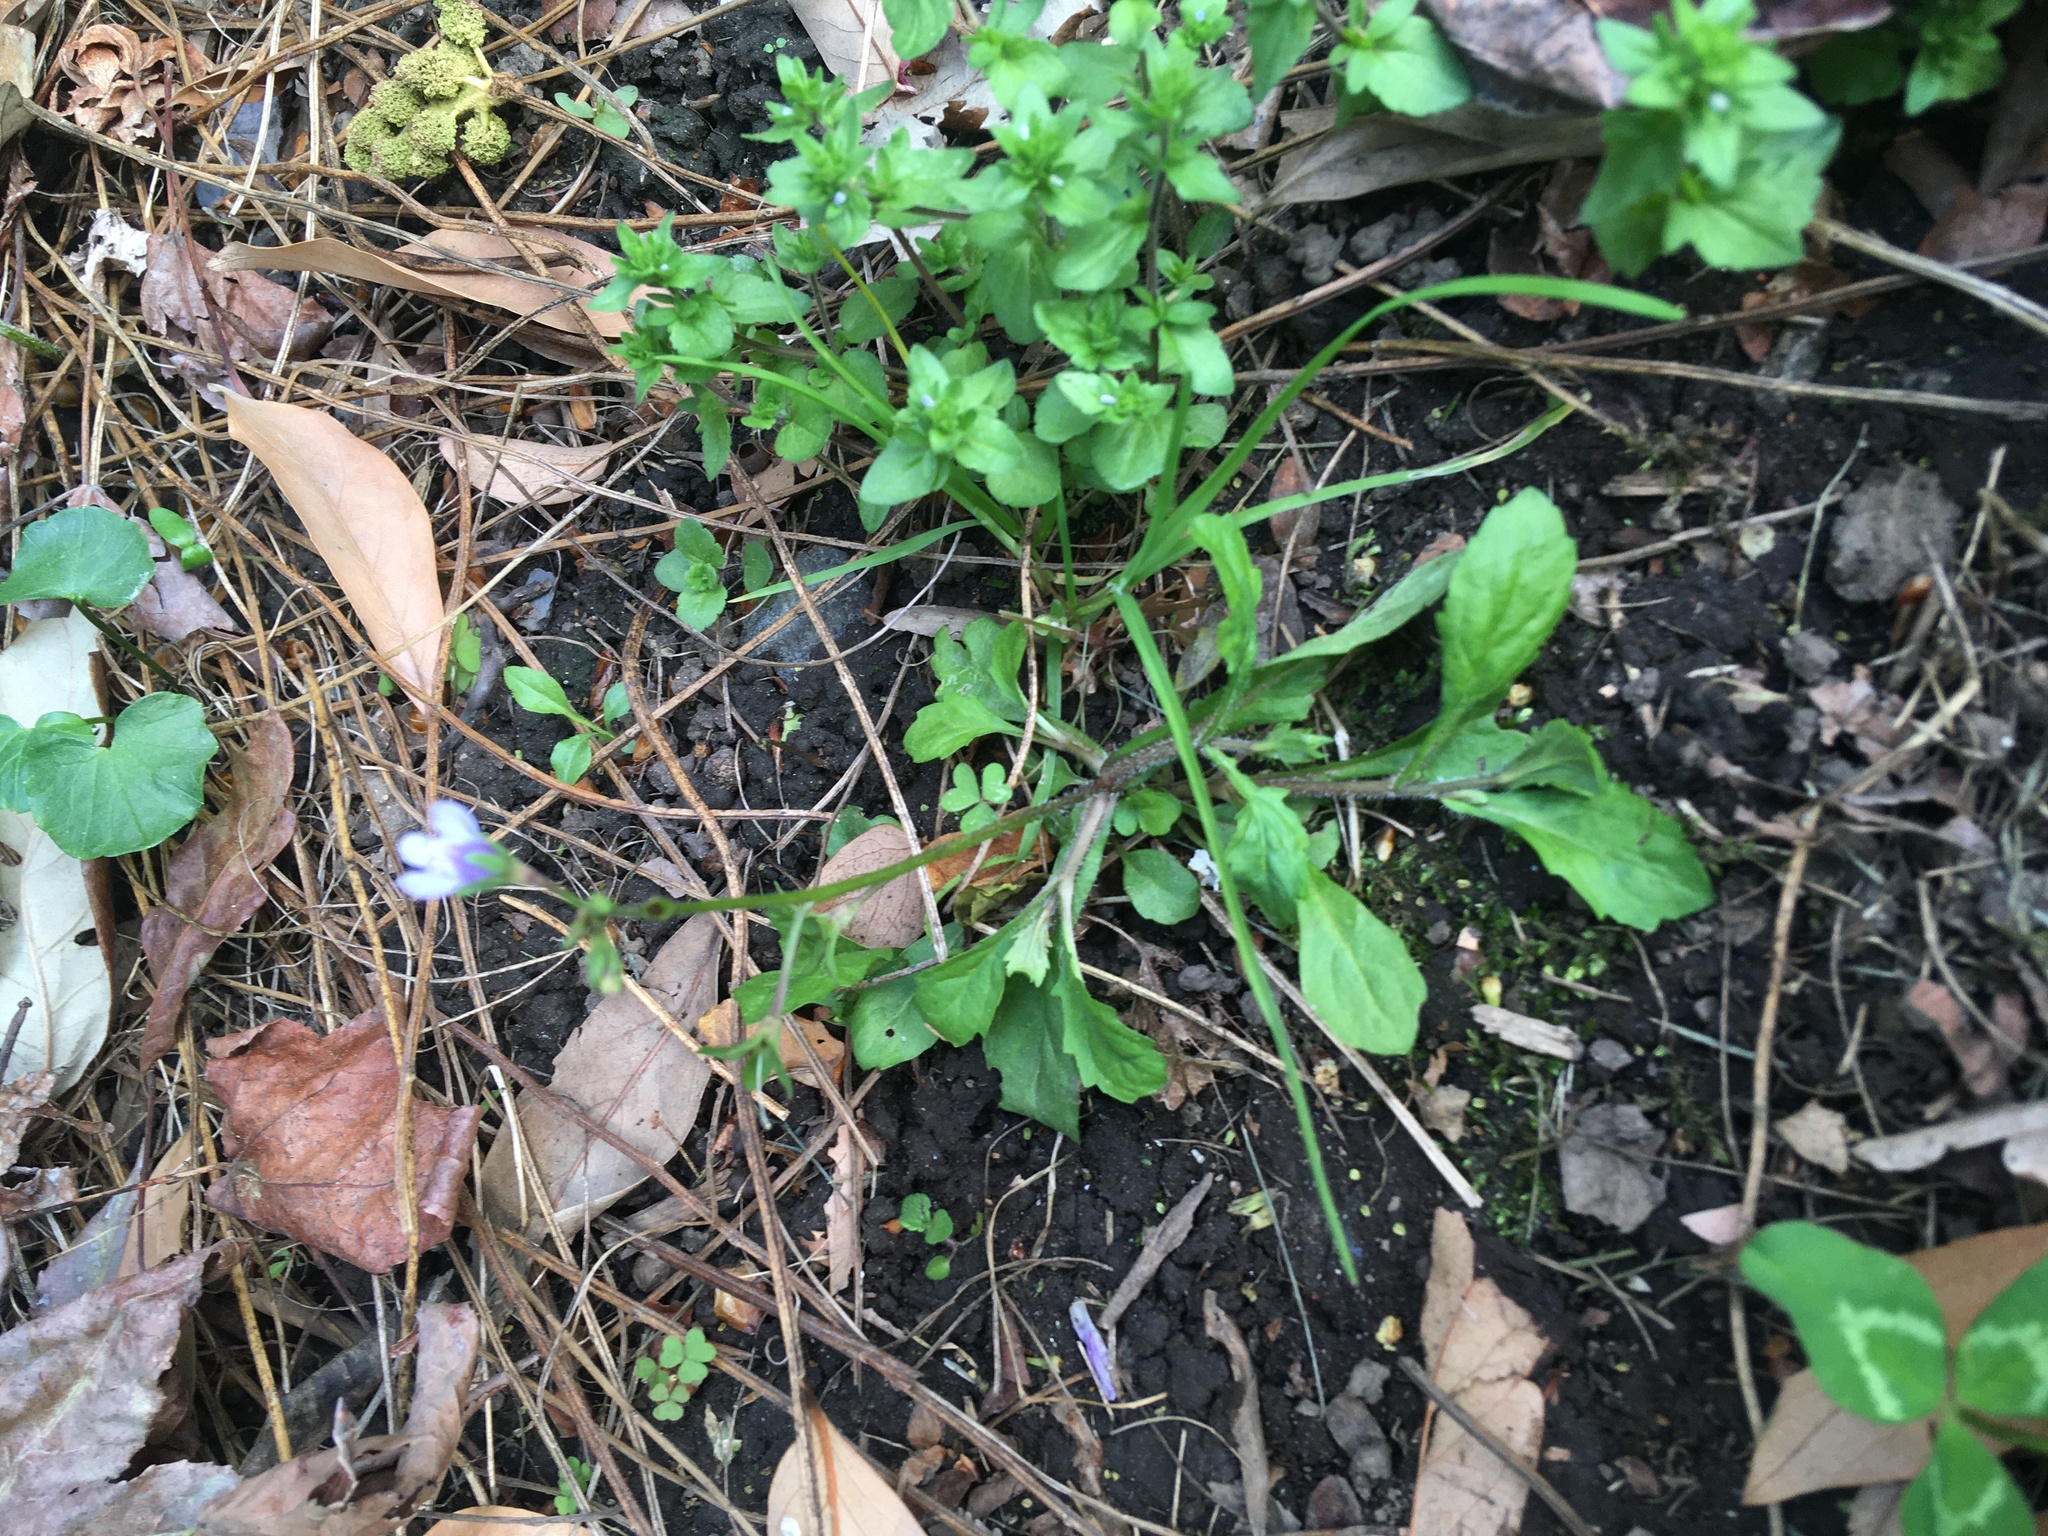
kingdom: Plantae
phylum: Tracheophyta
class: Magnoliopsida
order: Lamiales
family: Mazaceae
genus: Mazus
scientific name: Mazus pumilus
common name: Japanese mazus
